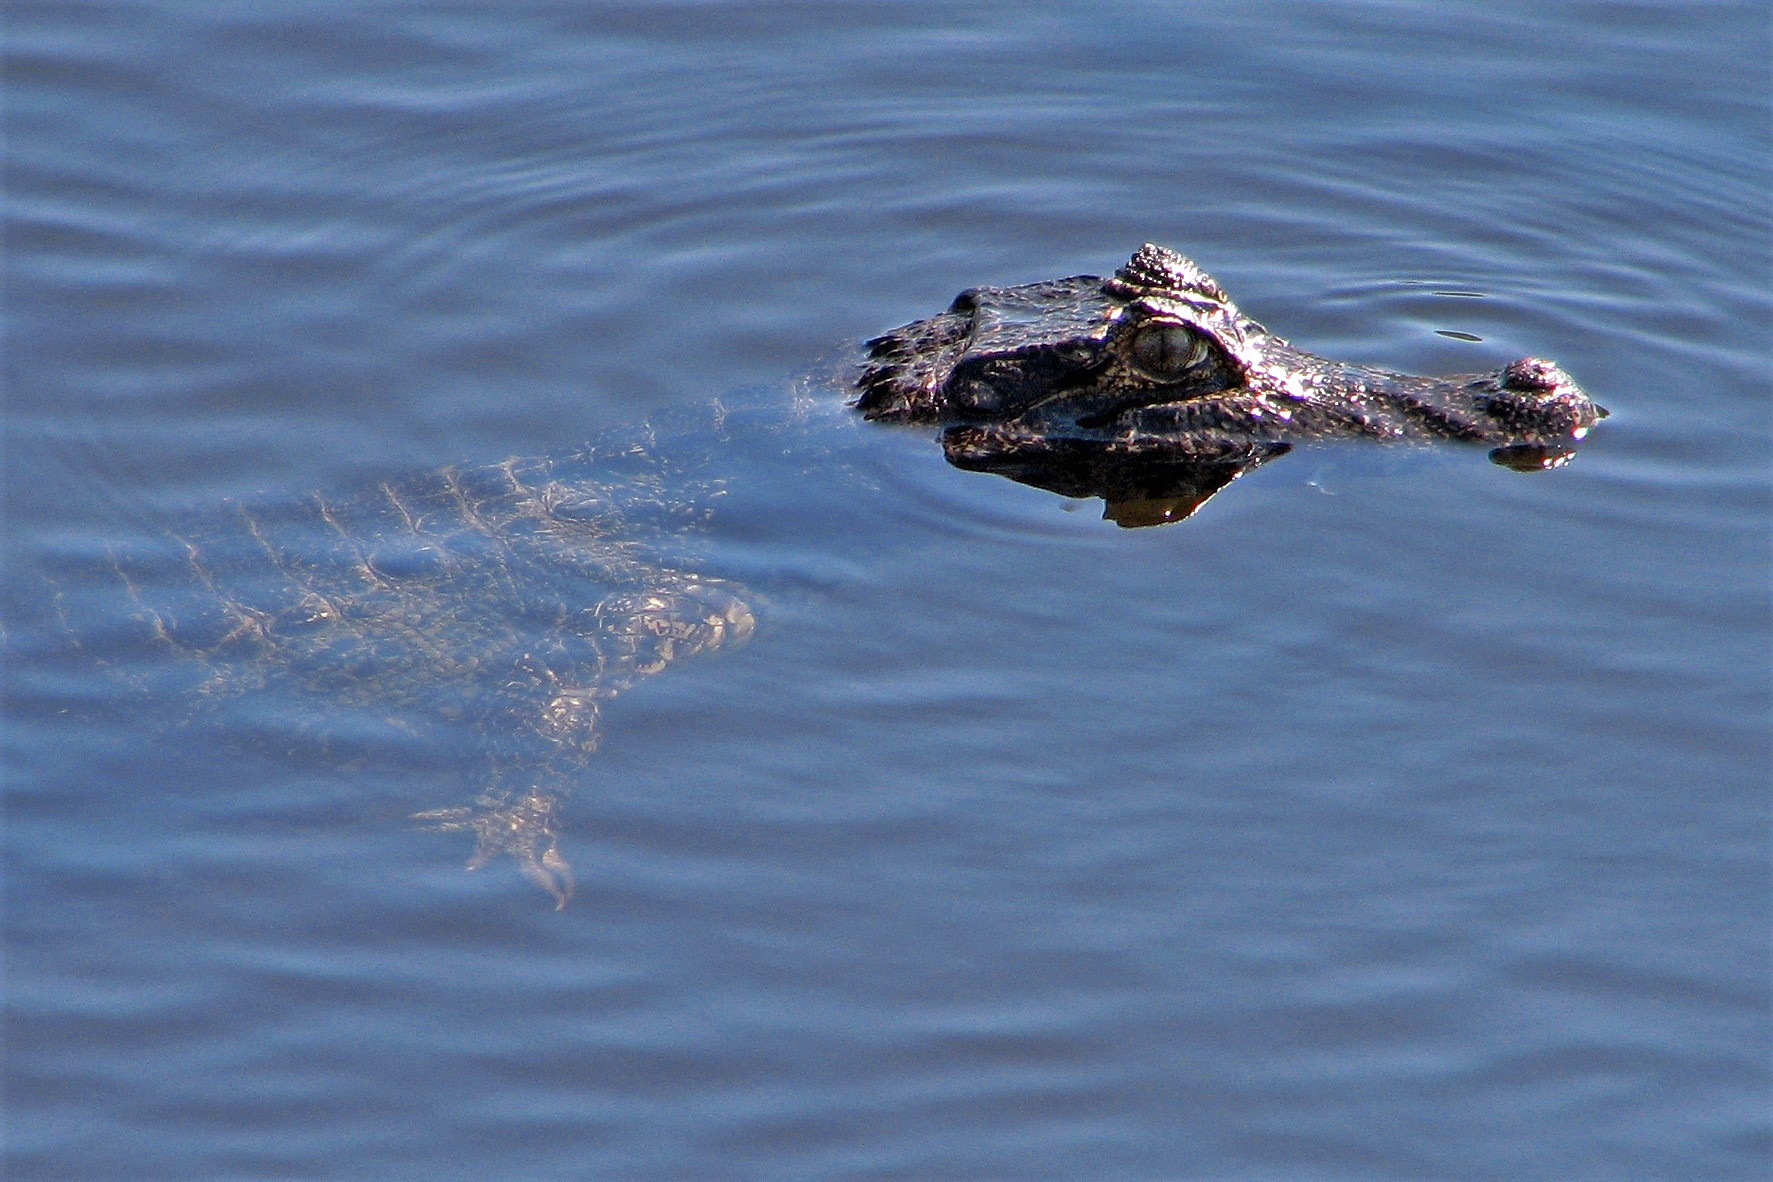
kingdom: Animalia
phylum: Chordata
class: Crocodylia
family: Alligatoridae
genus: Caiman
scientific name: Caiman latirostris
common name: Broad-snouted caiman
